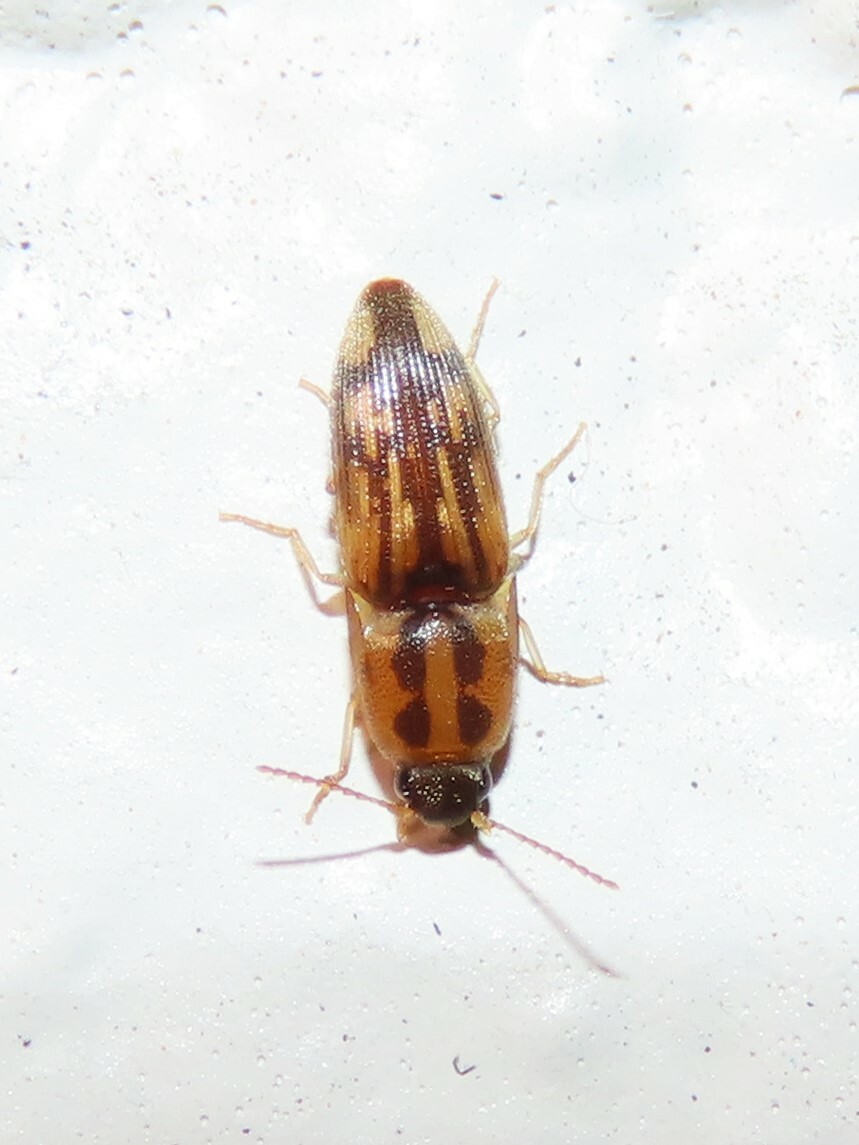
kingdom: Animalia
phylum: Arthropoda
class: Insecta
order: Coleoptera
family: Elateridae
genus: Monocrepidius
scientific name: Monocrepidius
